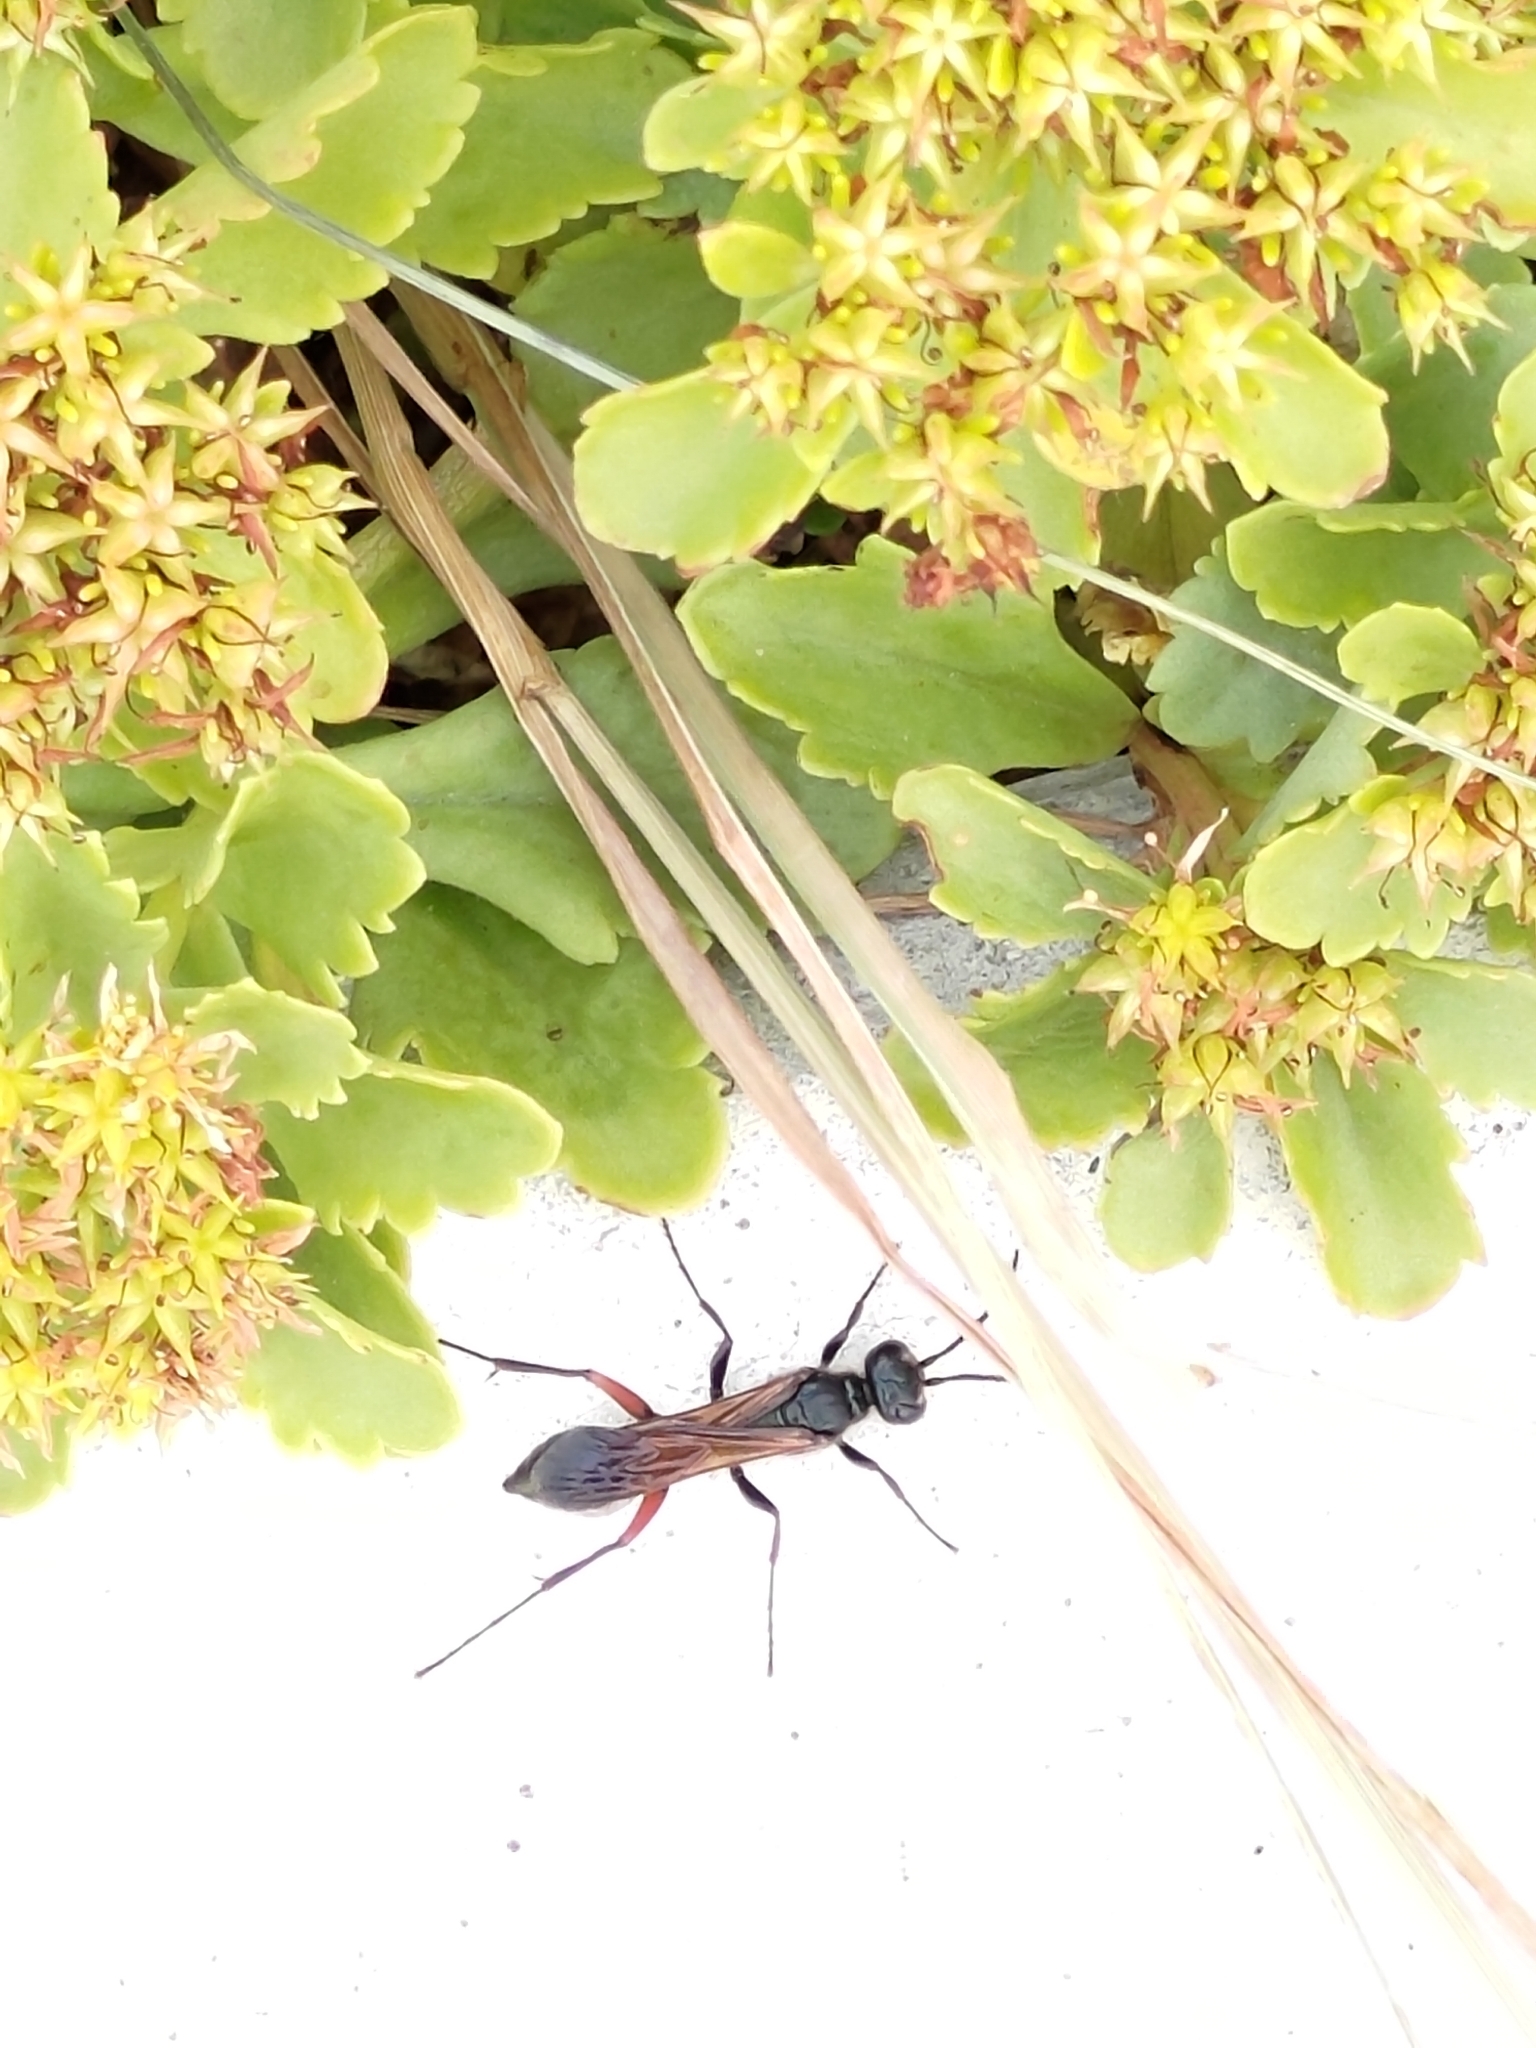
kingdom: Animalia
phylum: Arthropoda
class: Insecta
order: Hymenoptera
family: Sphecidae
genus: Chalybion
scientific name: Chalybion femoratum
